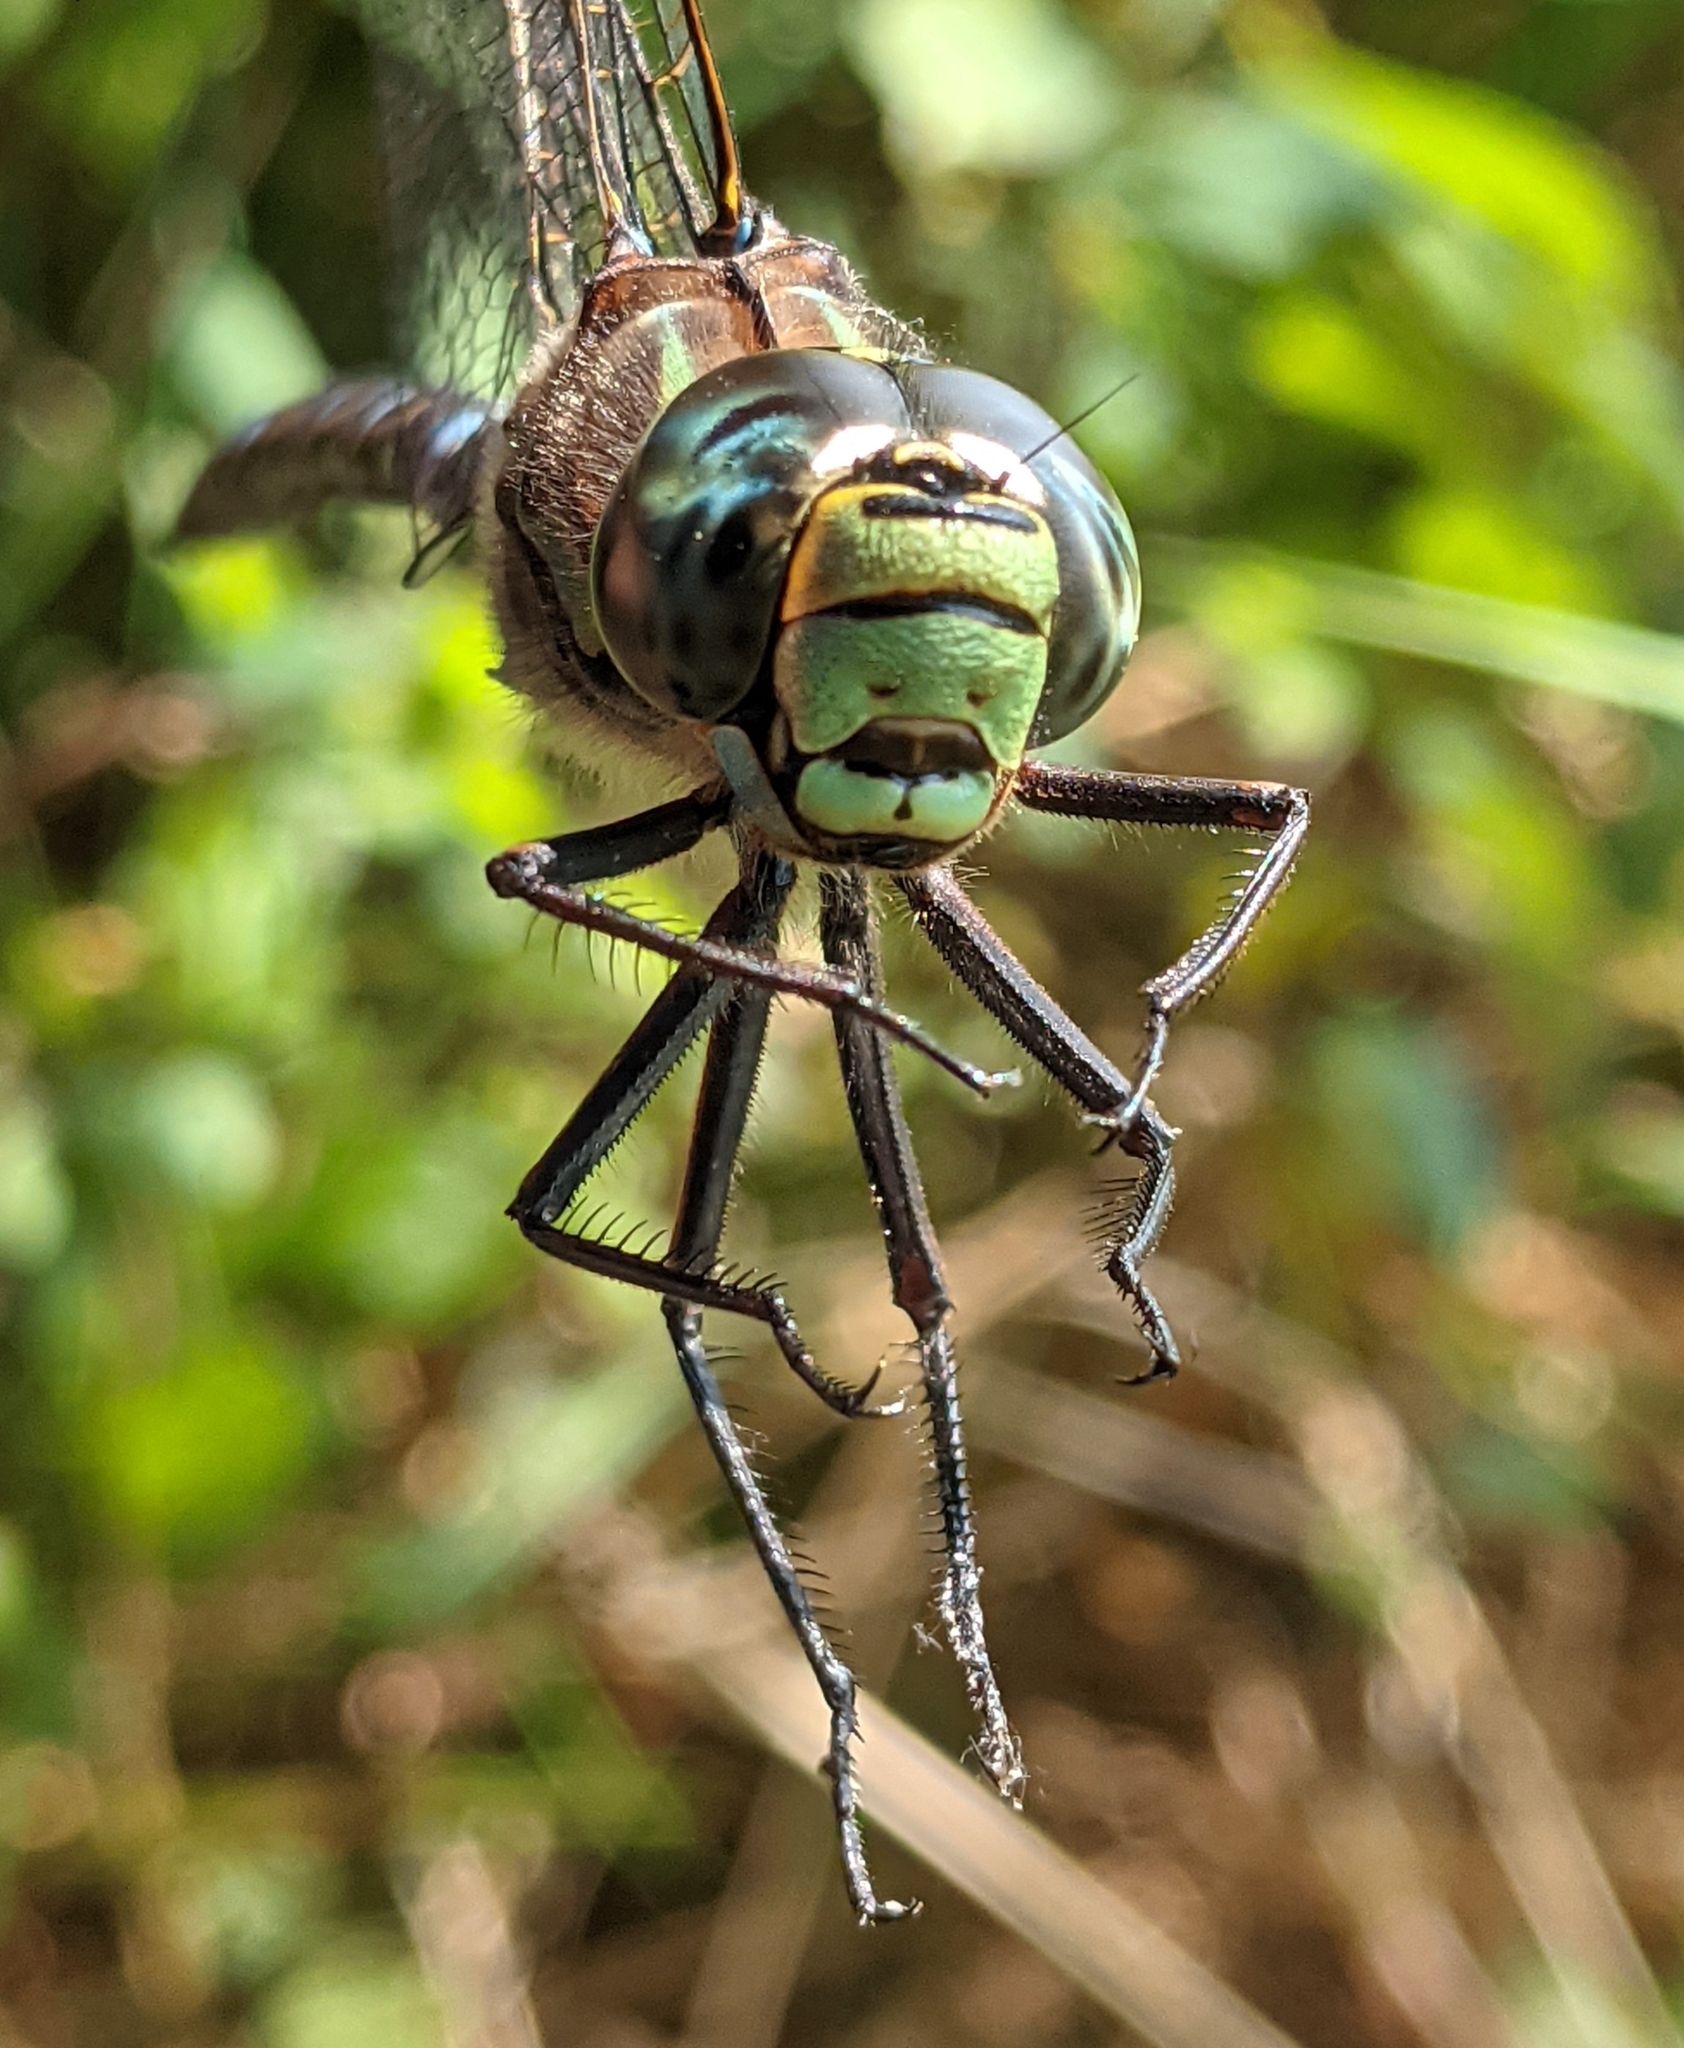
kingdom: Animalia
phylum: Arthropoda
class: Insecta
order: Odonata
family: Aeshnidae
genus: Aeshna
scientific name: Aeshna eremita
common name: Lake darner
